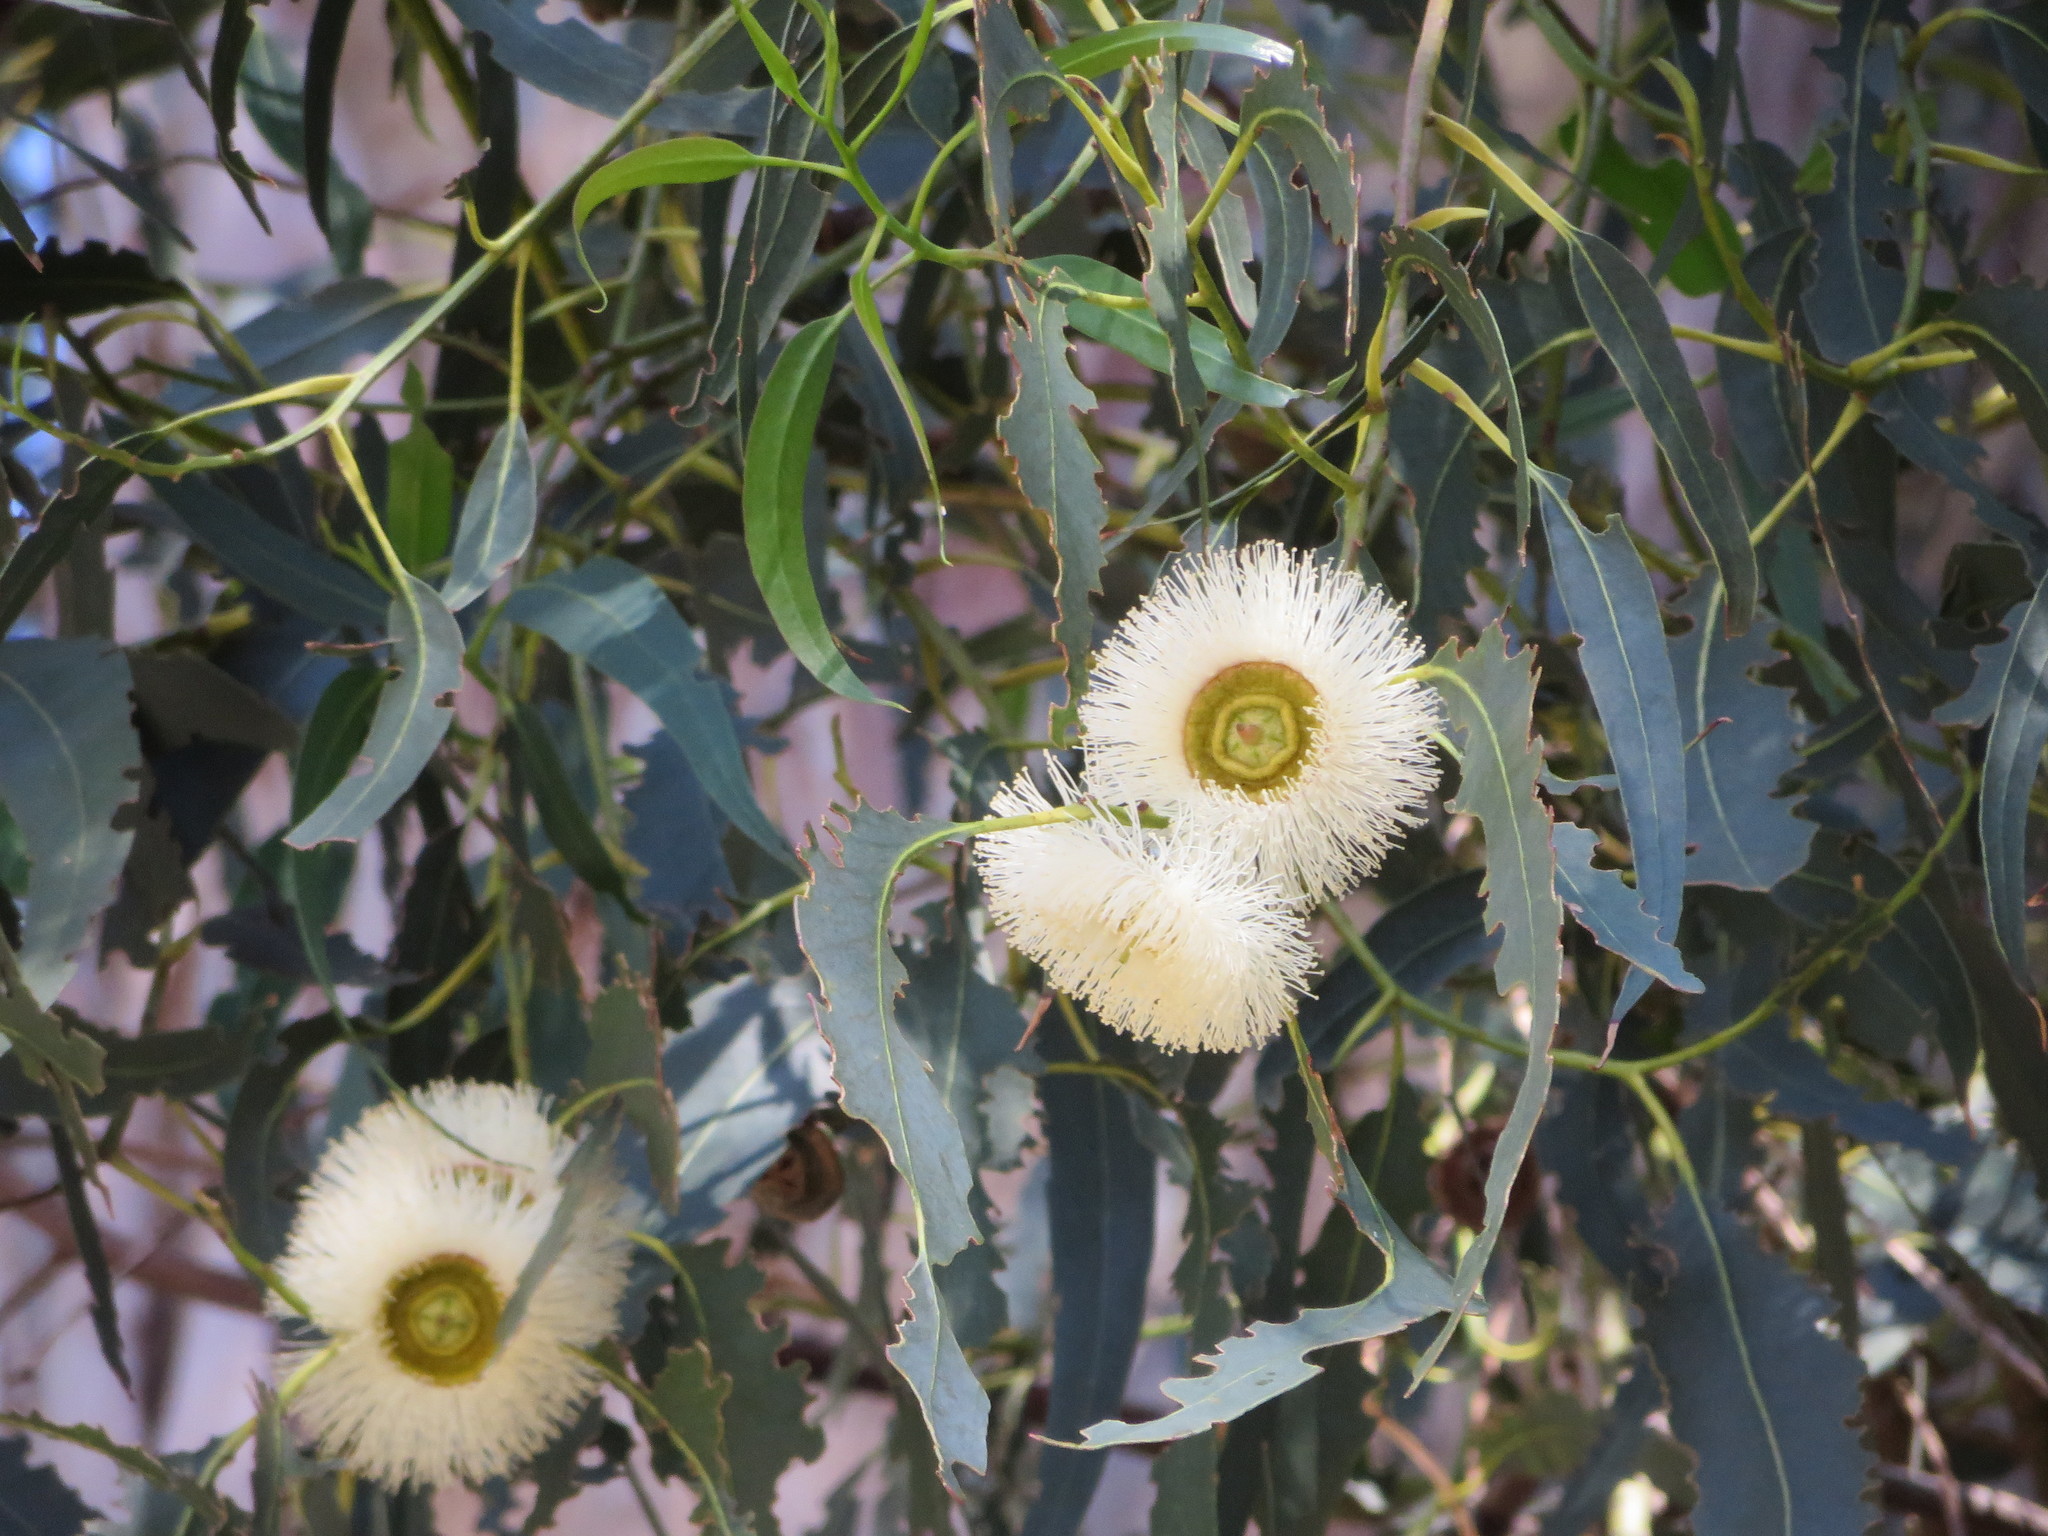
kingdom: Plantae
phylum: Tracheophyta
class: Magnoliopsida
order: Myrtales
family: Myrtaceae
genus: Eucalyptus
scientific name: Eucalyptus globulus
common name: Southern blue-gum
